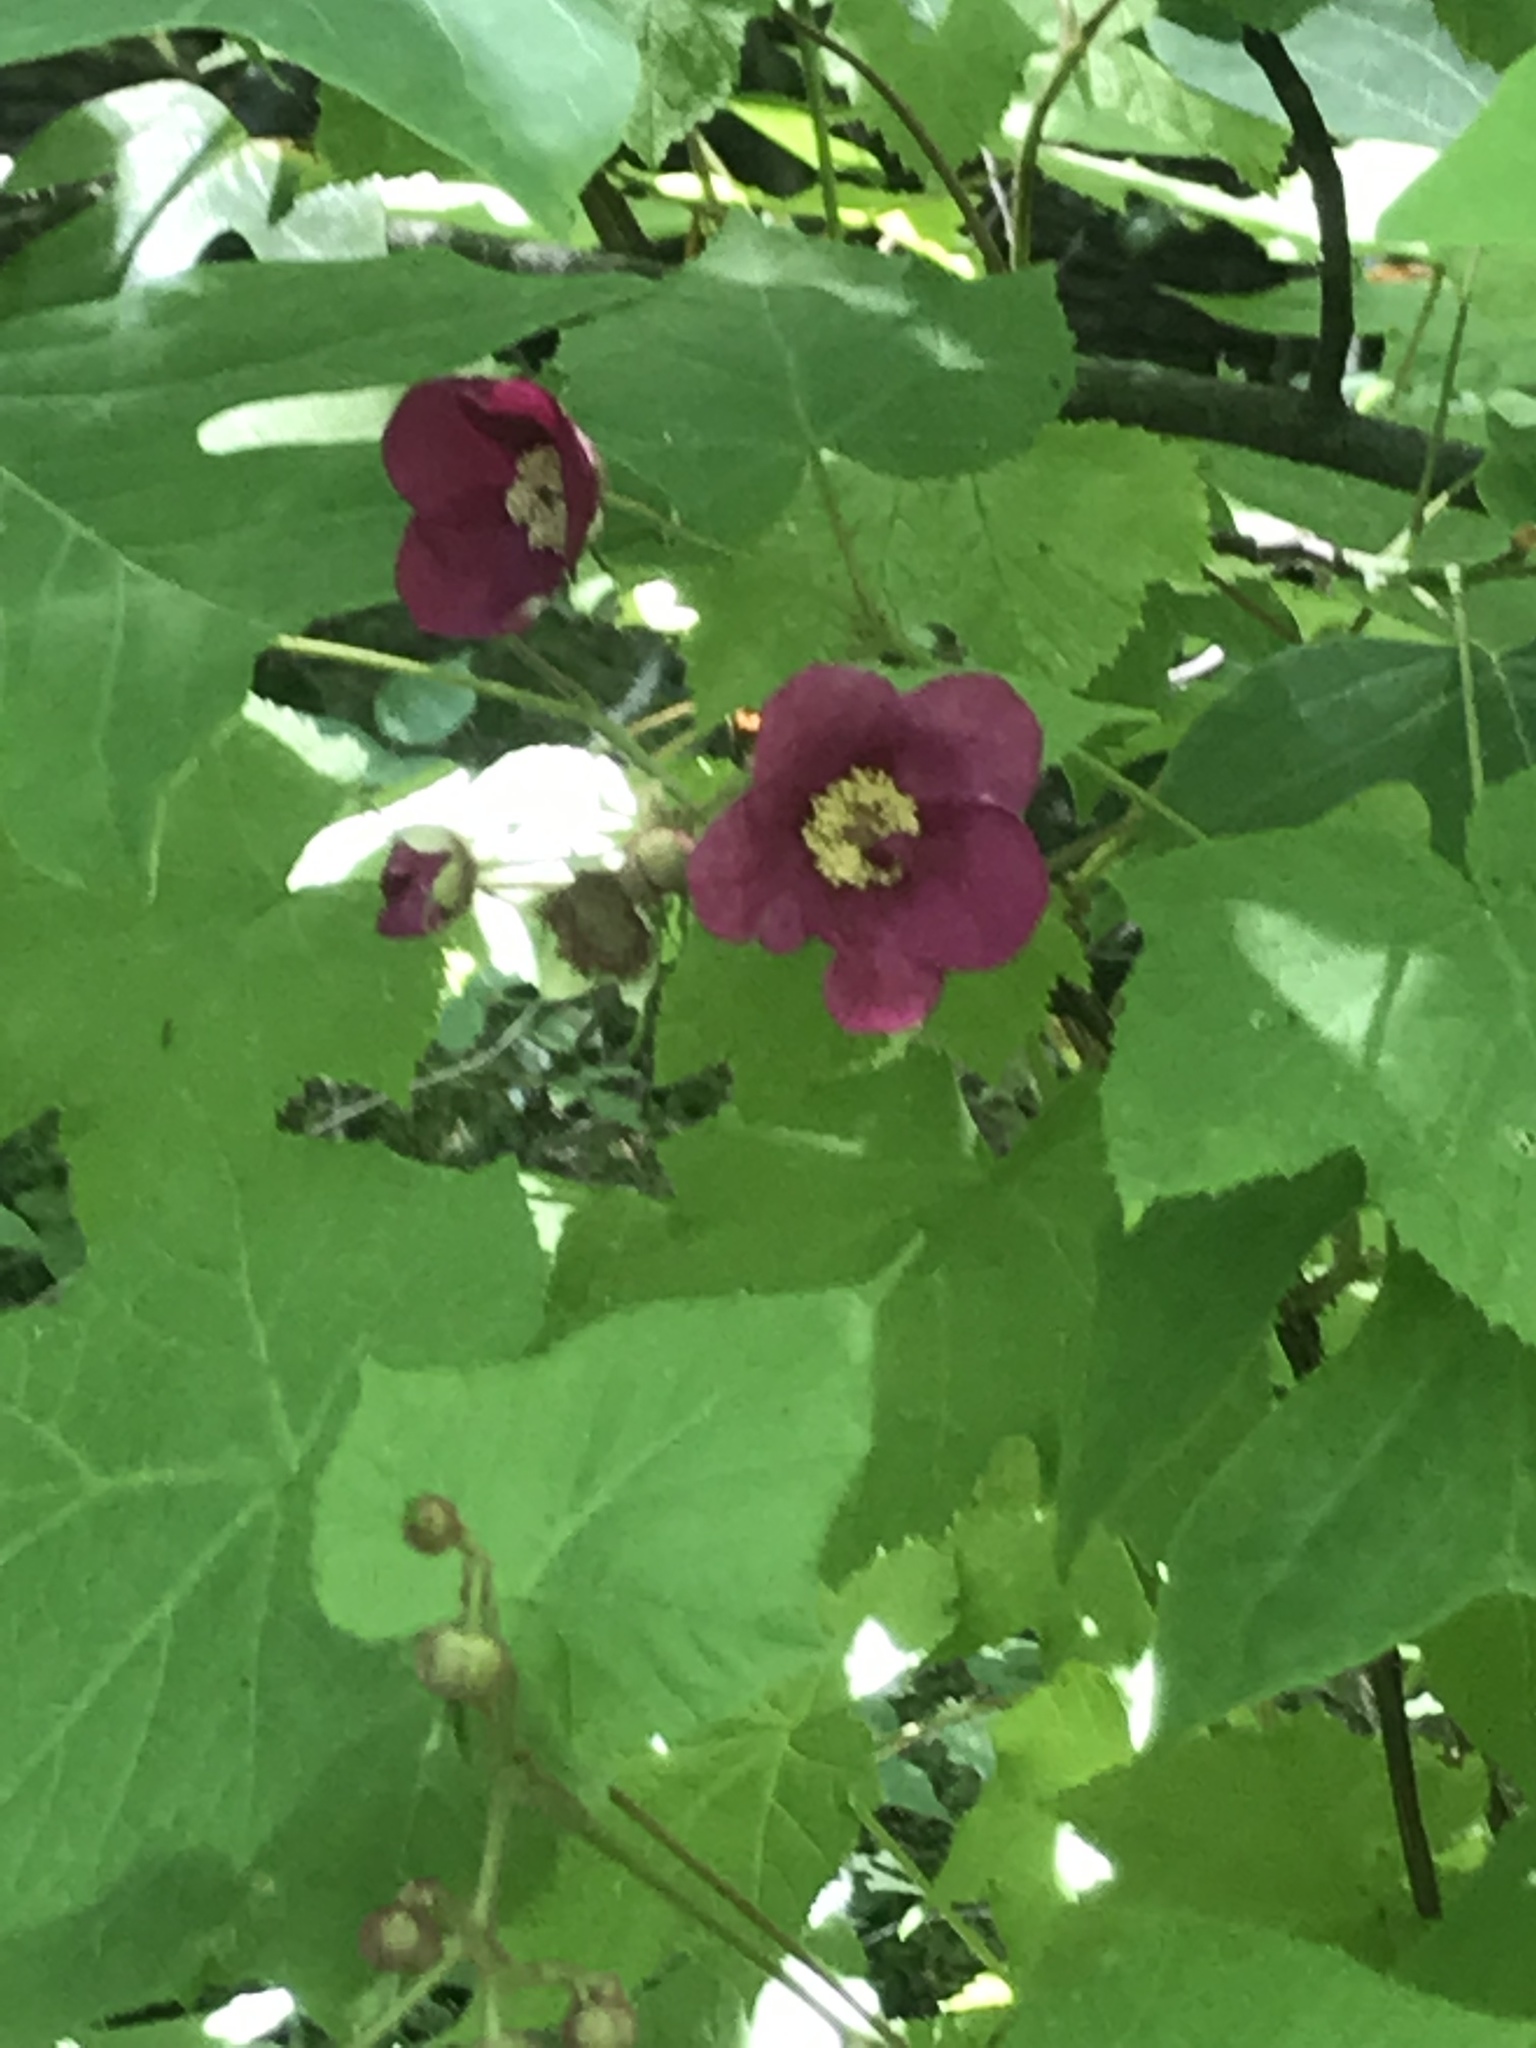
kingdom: Plantae
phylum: Tracheophyta
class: Magnoliopsida
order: Rosales
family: Rosaceae
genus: Rubus
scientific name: Rubus odoratus
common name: Purple-flowered raspberry
